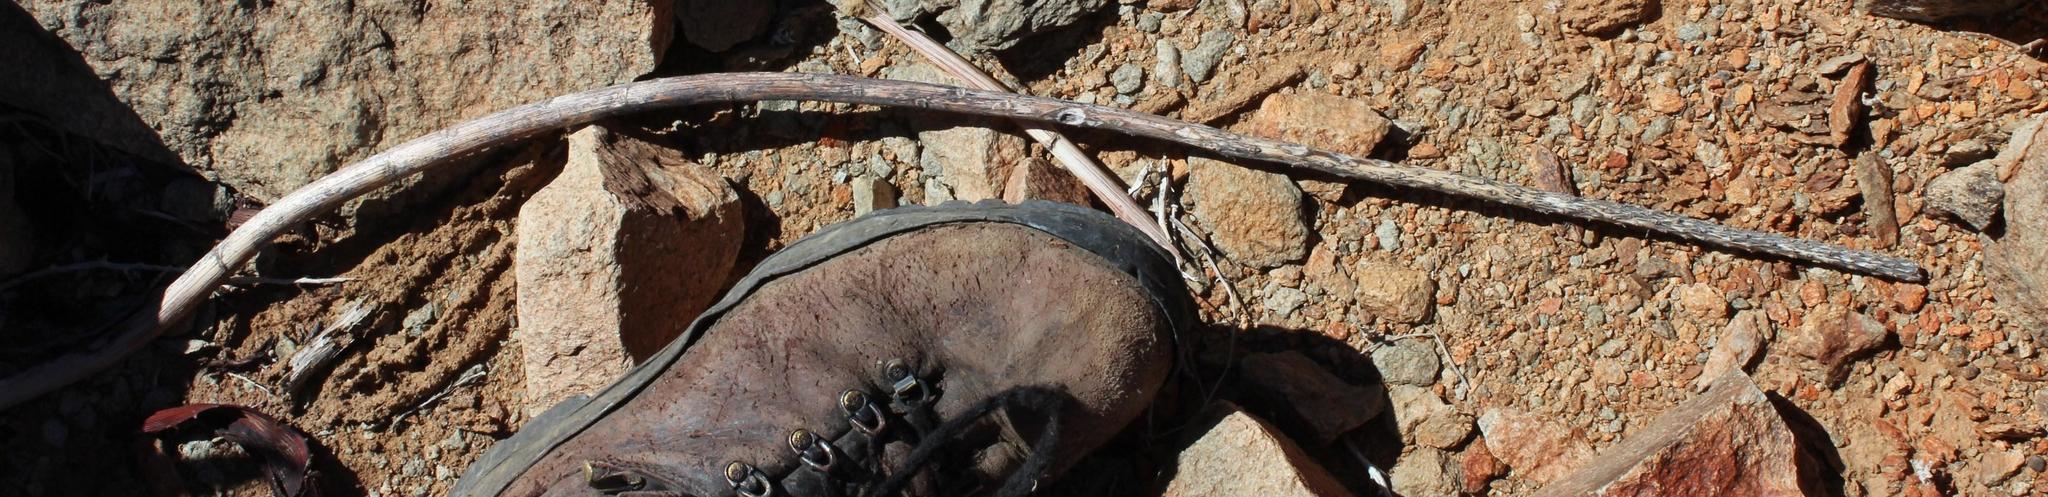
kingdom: Plantae
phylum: Tracheophyta
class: Liliopsida
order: Asparagales
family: Asphodelaceae
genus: Aloe
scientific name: Aloe gariepensis
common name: Orange river aloe
